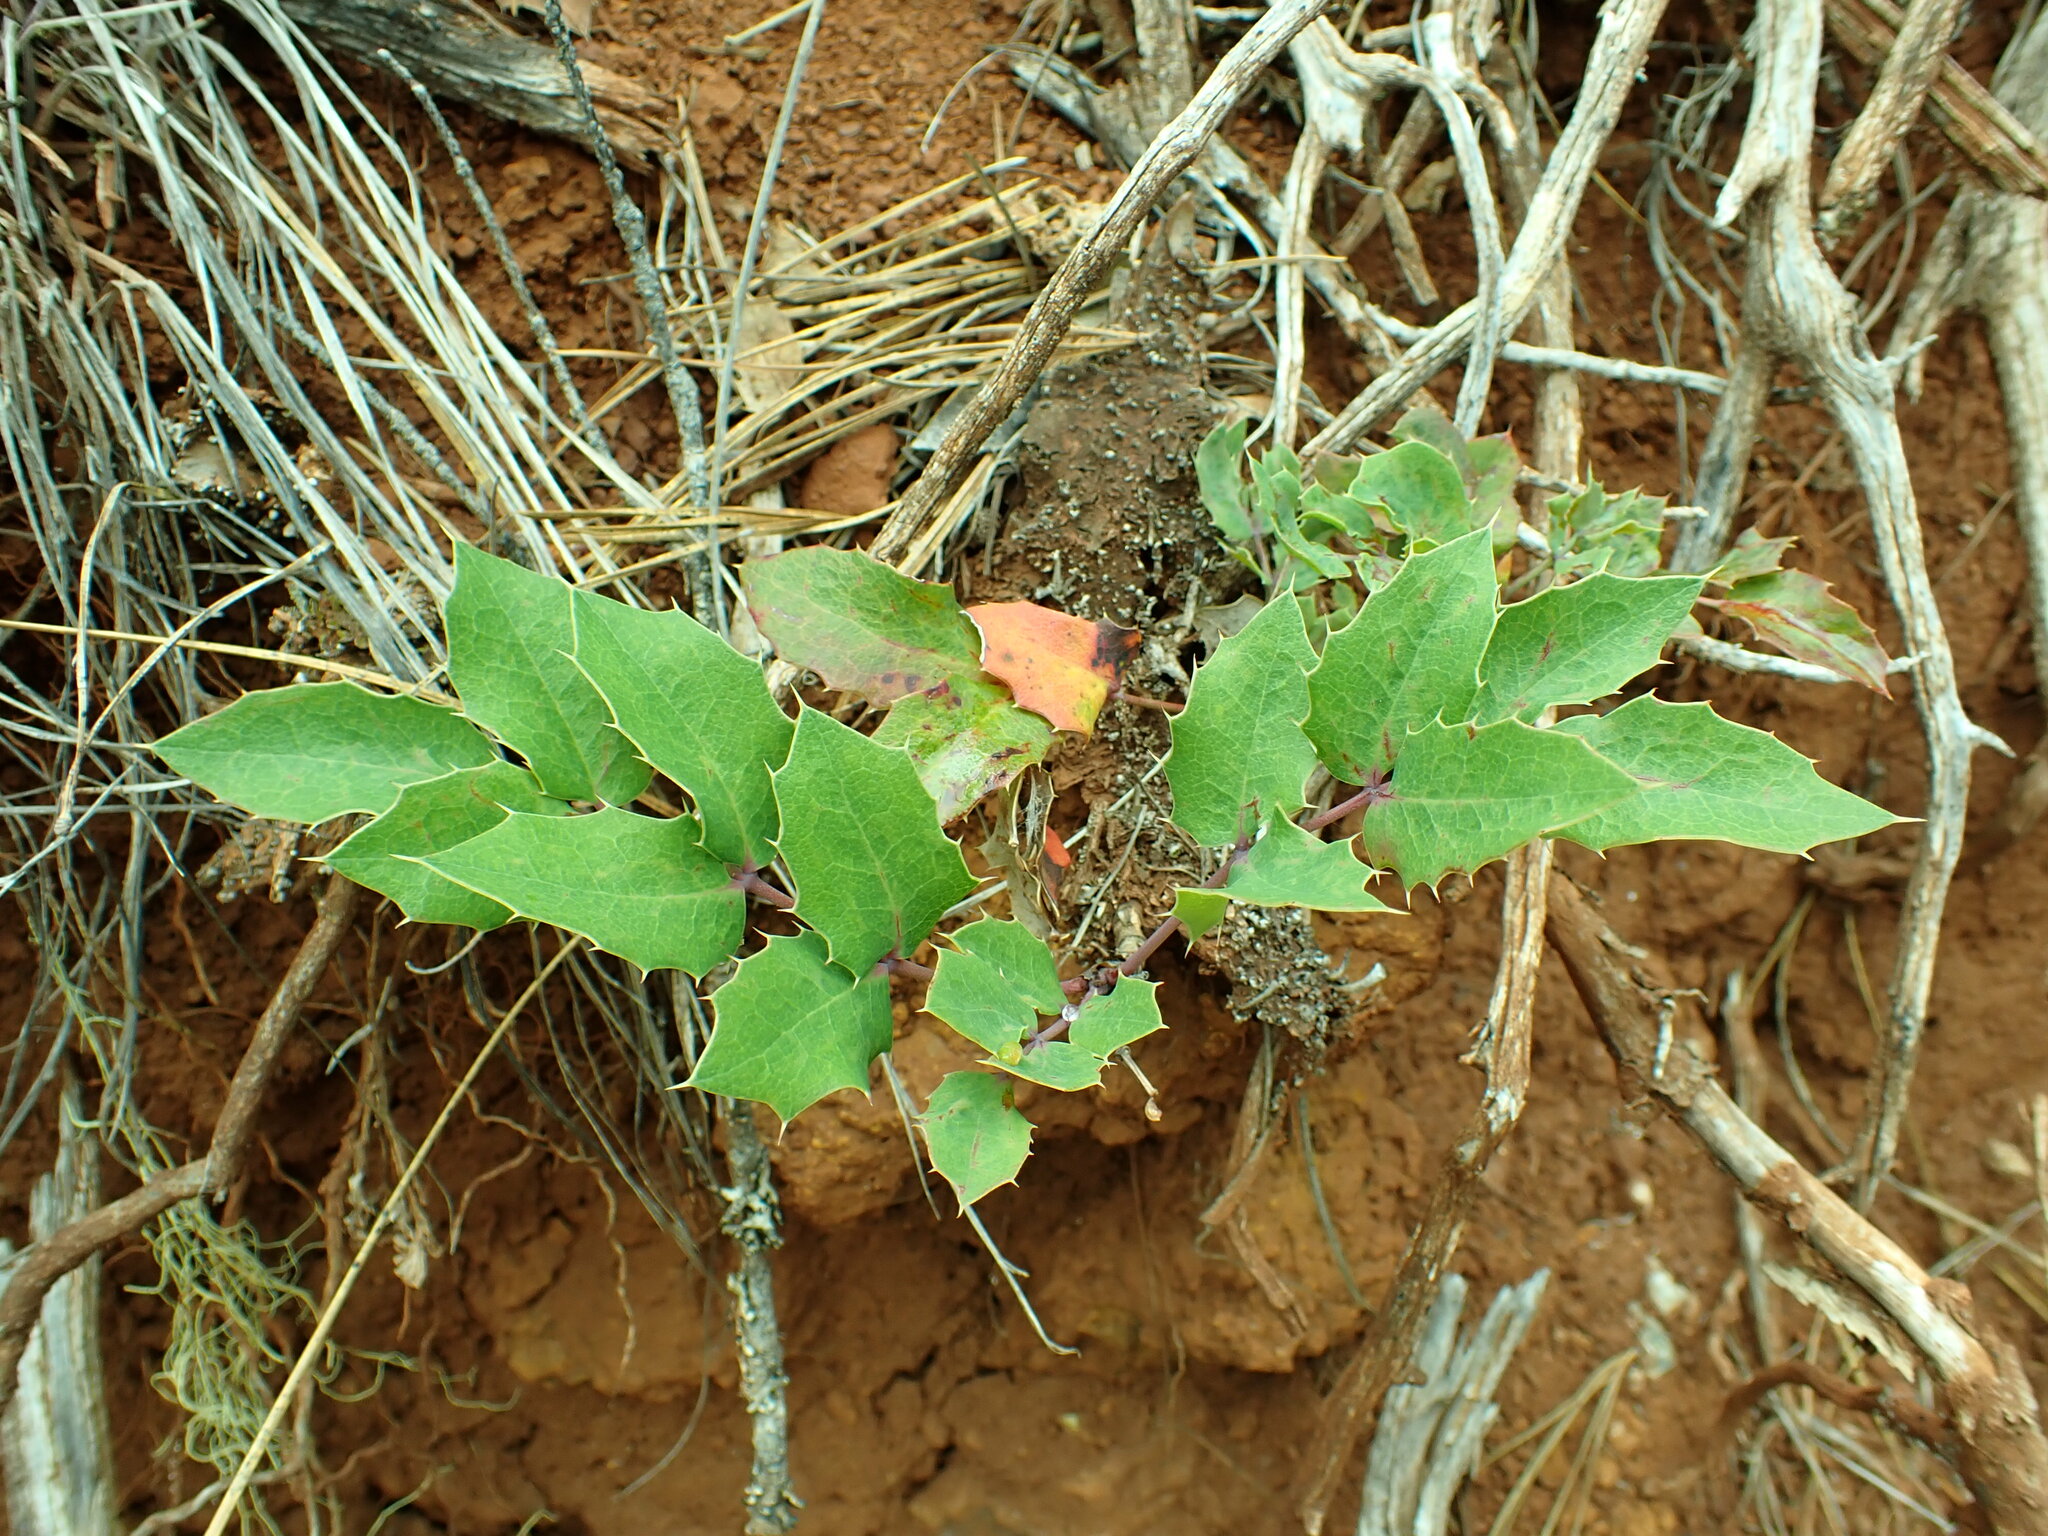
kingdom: Plantae
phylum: Tracheophyta
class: Magnoliopsida
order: Ranunculales
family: Berberidaceae
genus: Mahonia
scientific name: Mahonia repens
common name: Creeping oregon-grape
